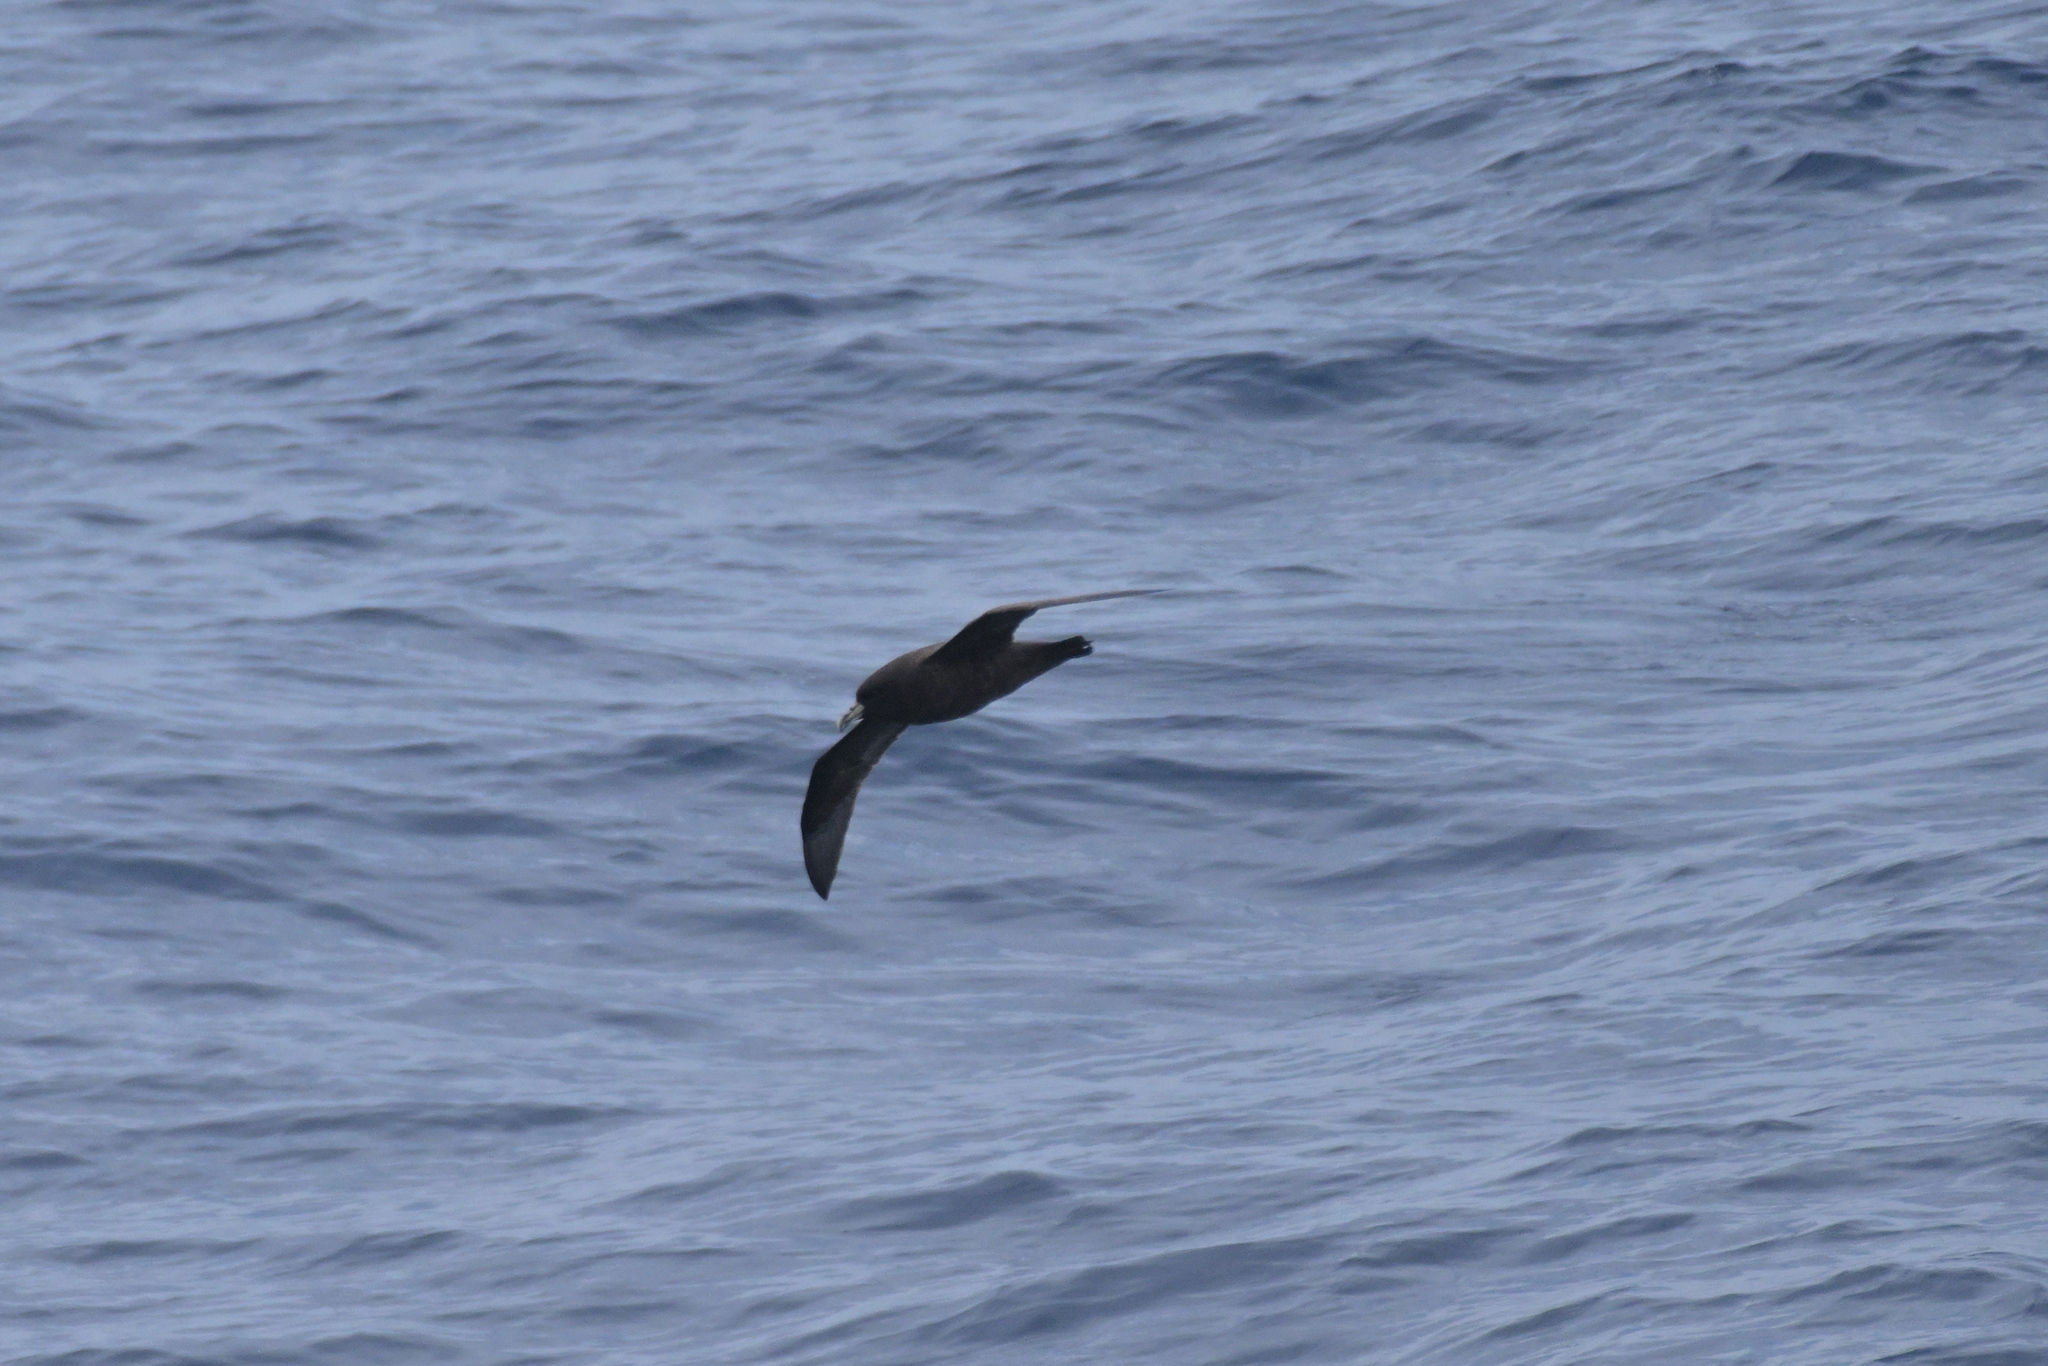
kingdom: Animalia
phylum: Chordata
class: Aves
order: Procellariiformes
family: Procellariidae
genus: Procellaria
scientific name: Procellaria aequinoctialis
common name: White-chinned petrel
